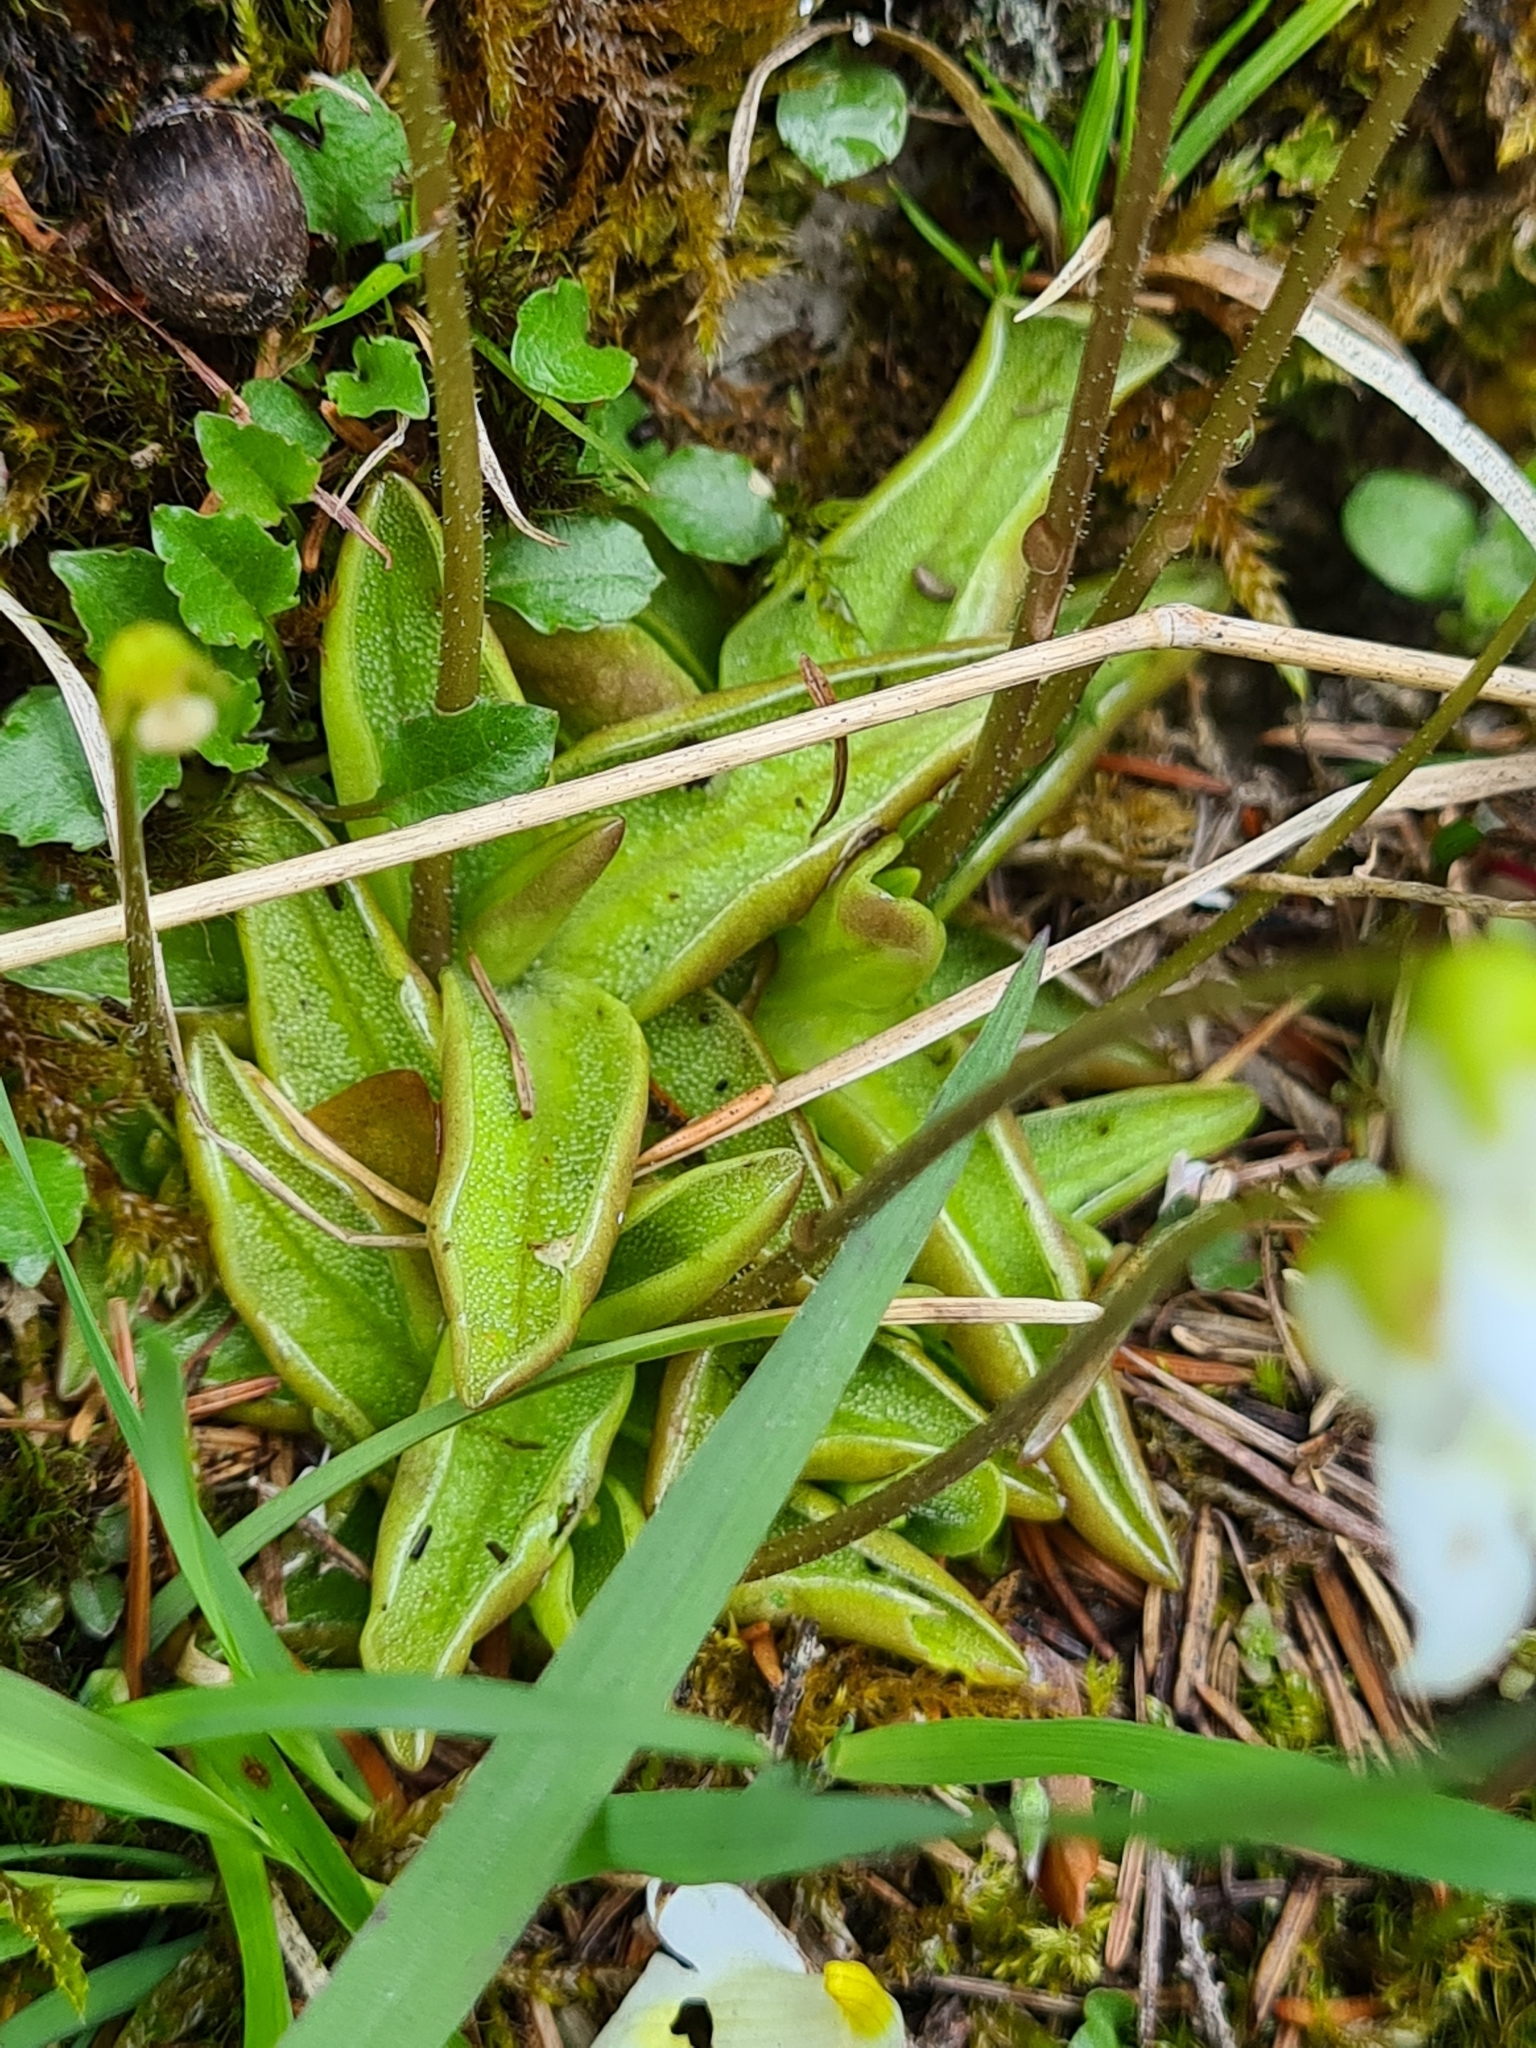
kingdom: Plantae
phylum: Tracheophyta
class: Magnoliopsida
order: Lamiales
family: Lentibulariaceae
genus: Pinguicula
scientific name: Pinguicula alpina
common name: Alpine butterwort
